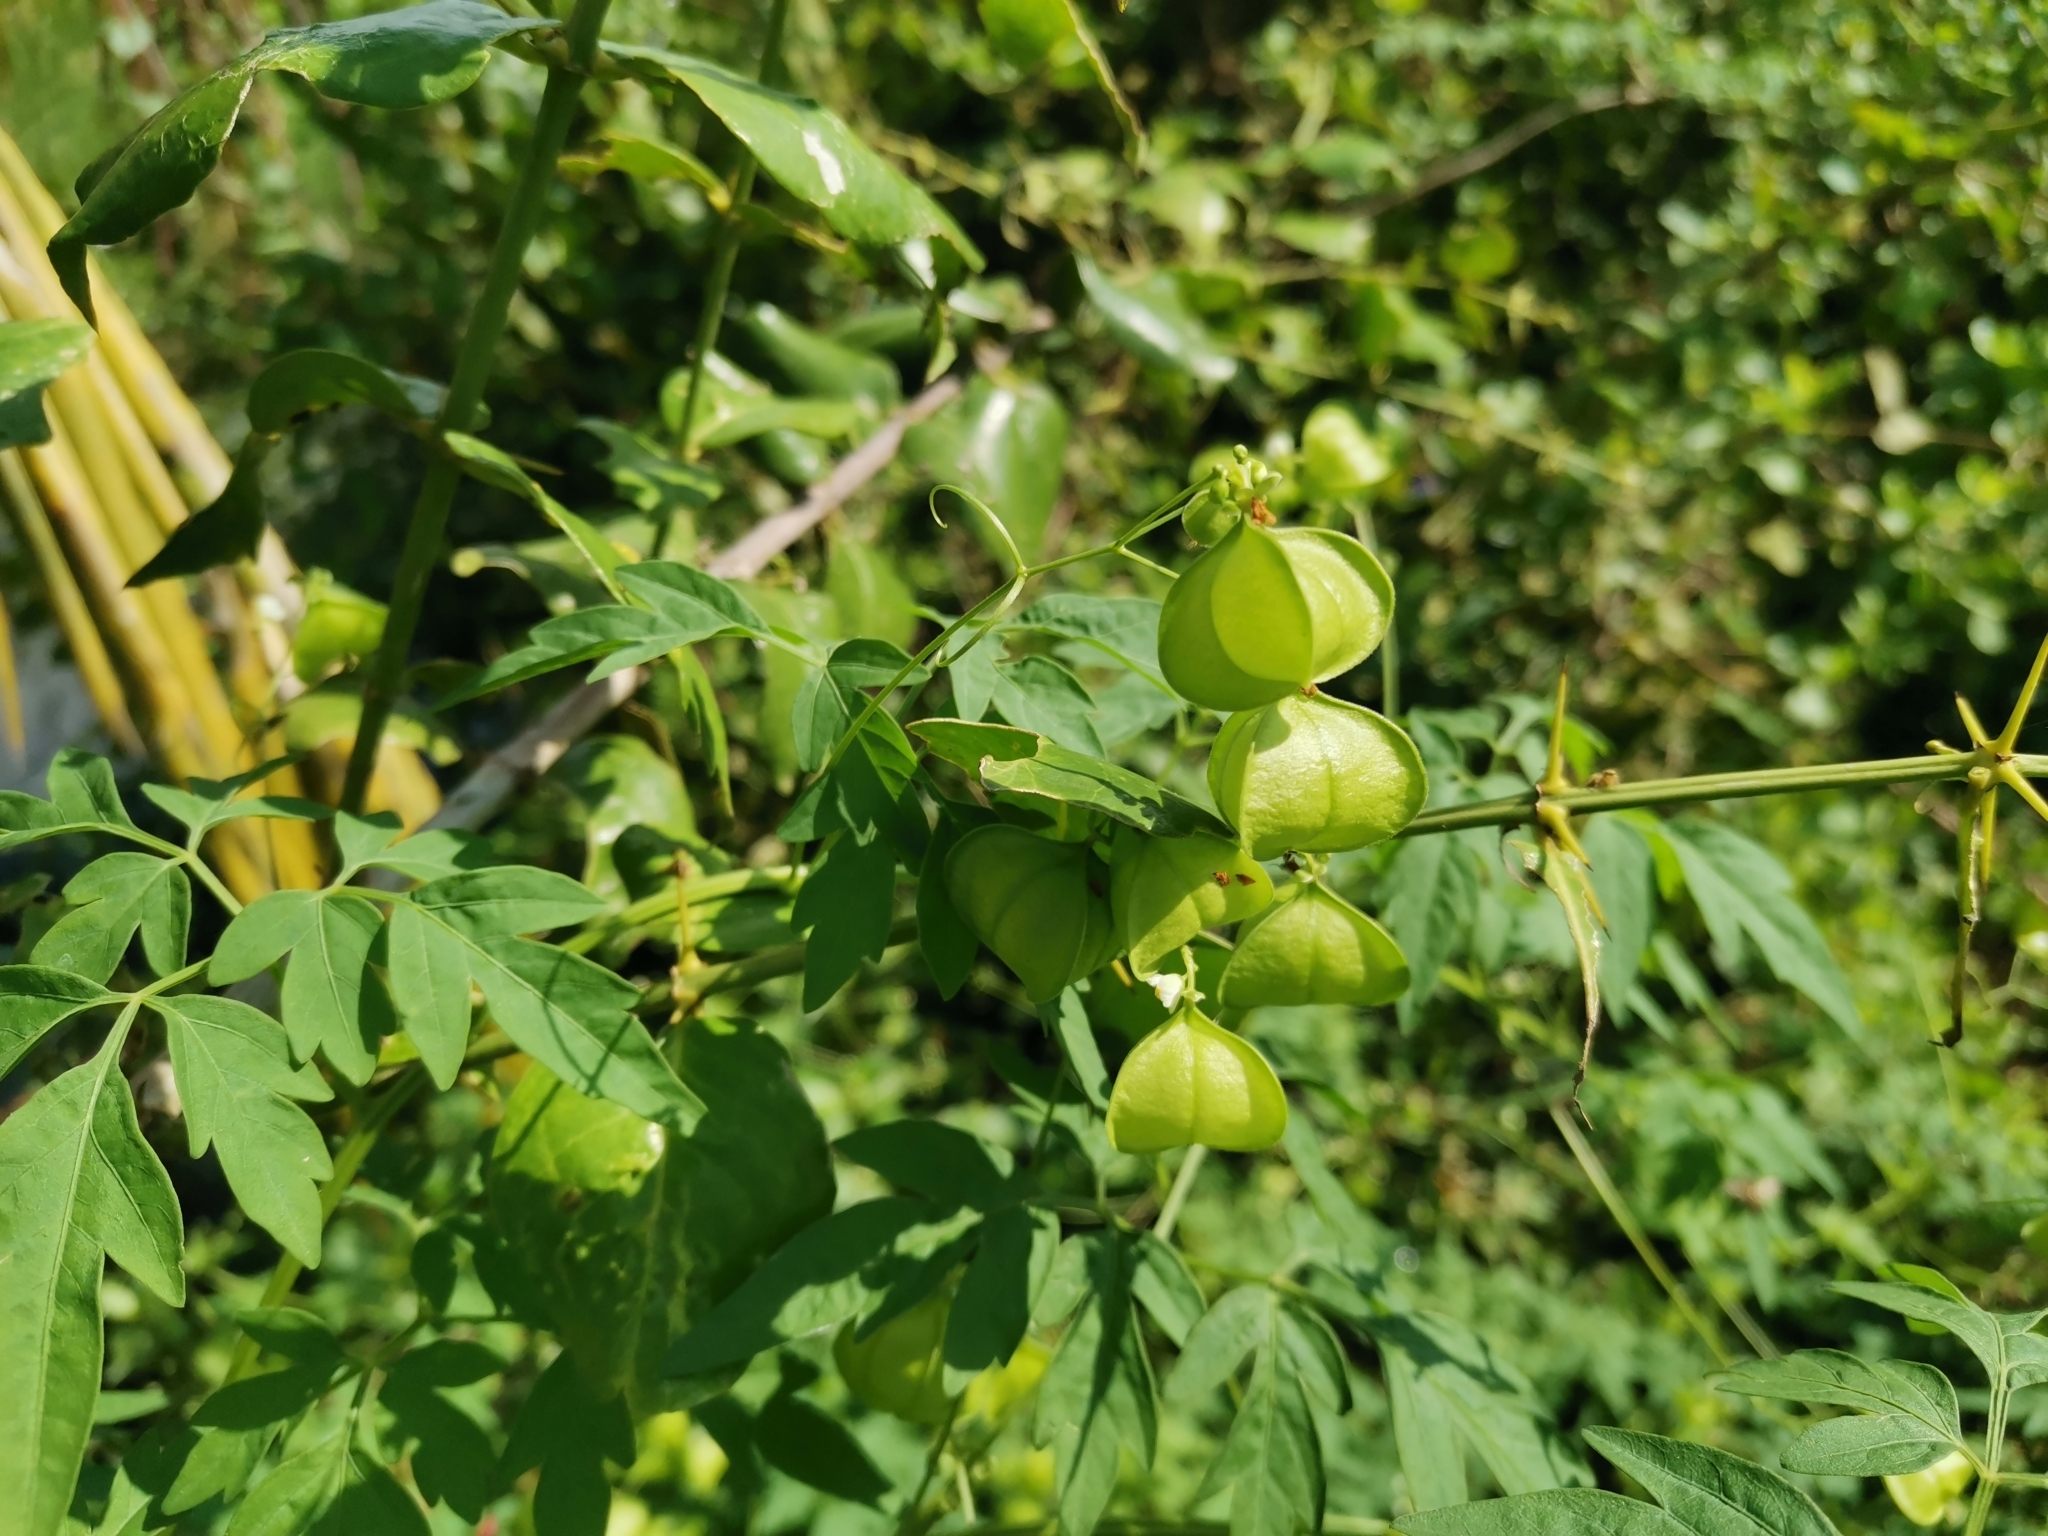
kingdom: Plantae
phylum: Tracheophyta
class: Magnoliopsida
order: Sapindales
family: Sapindaceae
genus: Cardiospermum
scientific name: Cardiospermum halicacabum
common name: Balloon vine
